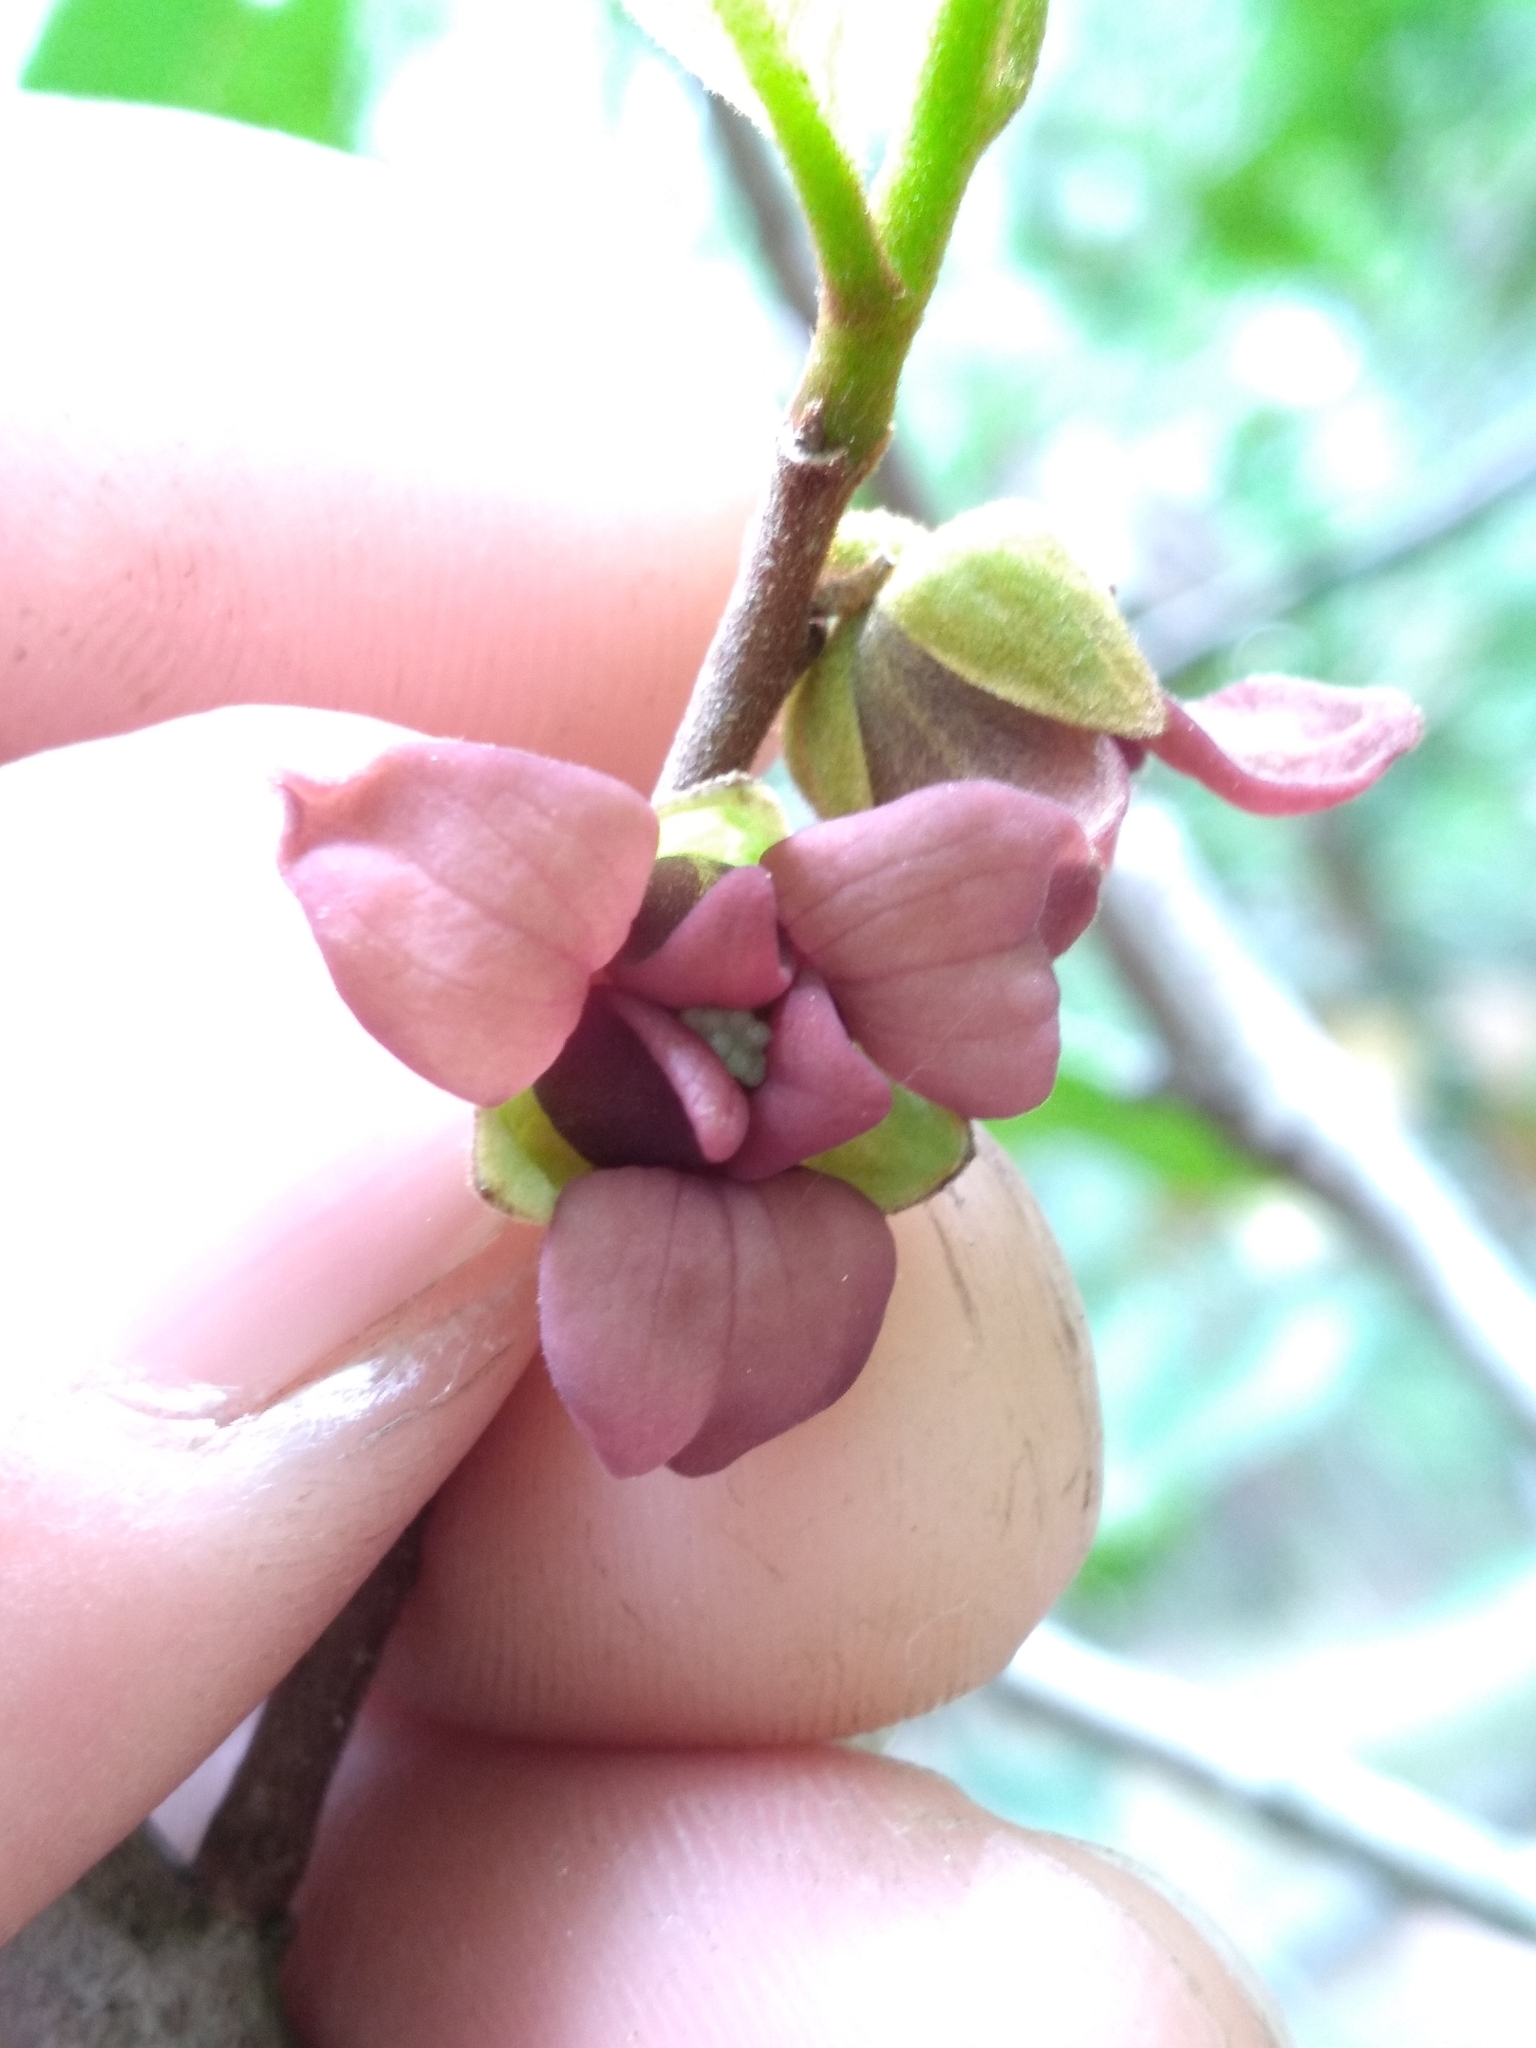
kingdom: Plantae
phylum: Tracheophyta
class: Magnoliopsida
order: Magnoliales
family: Annonaceae
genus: Asimina
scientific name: Asimina parviflora
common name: Dwarf pawpaw
